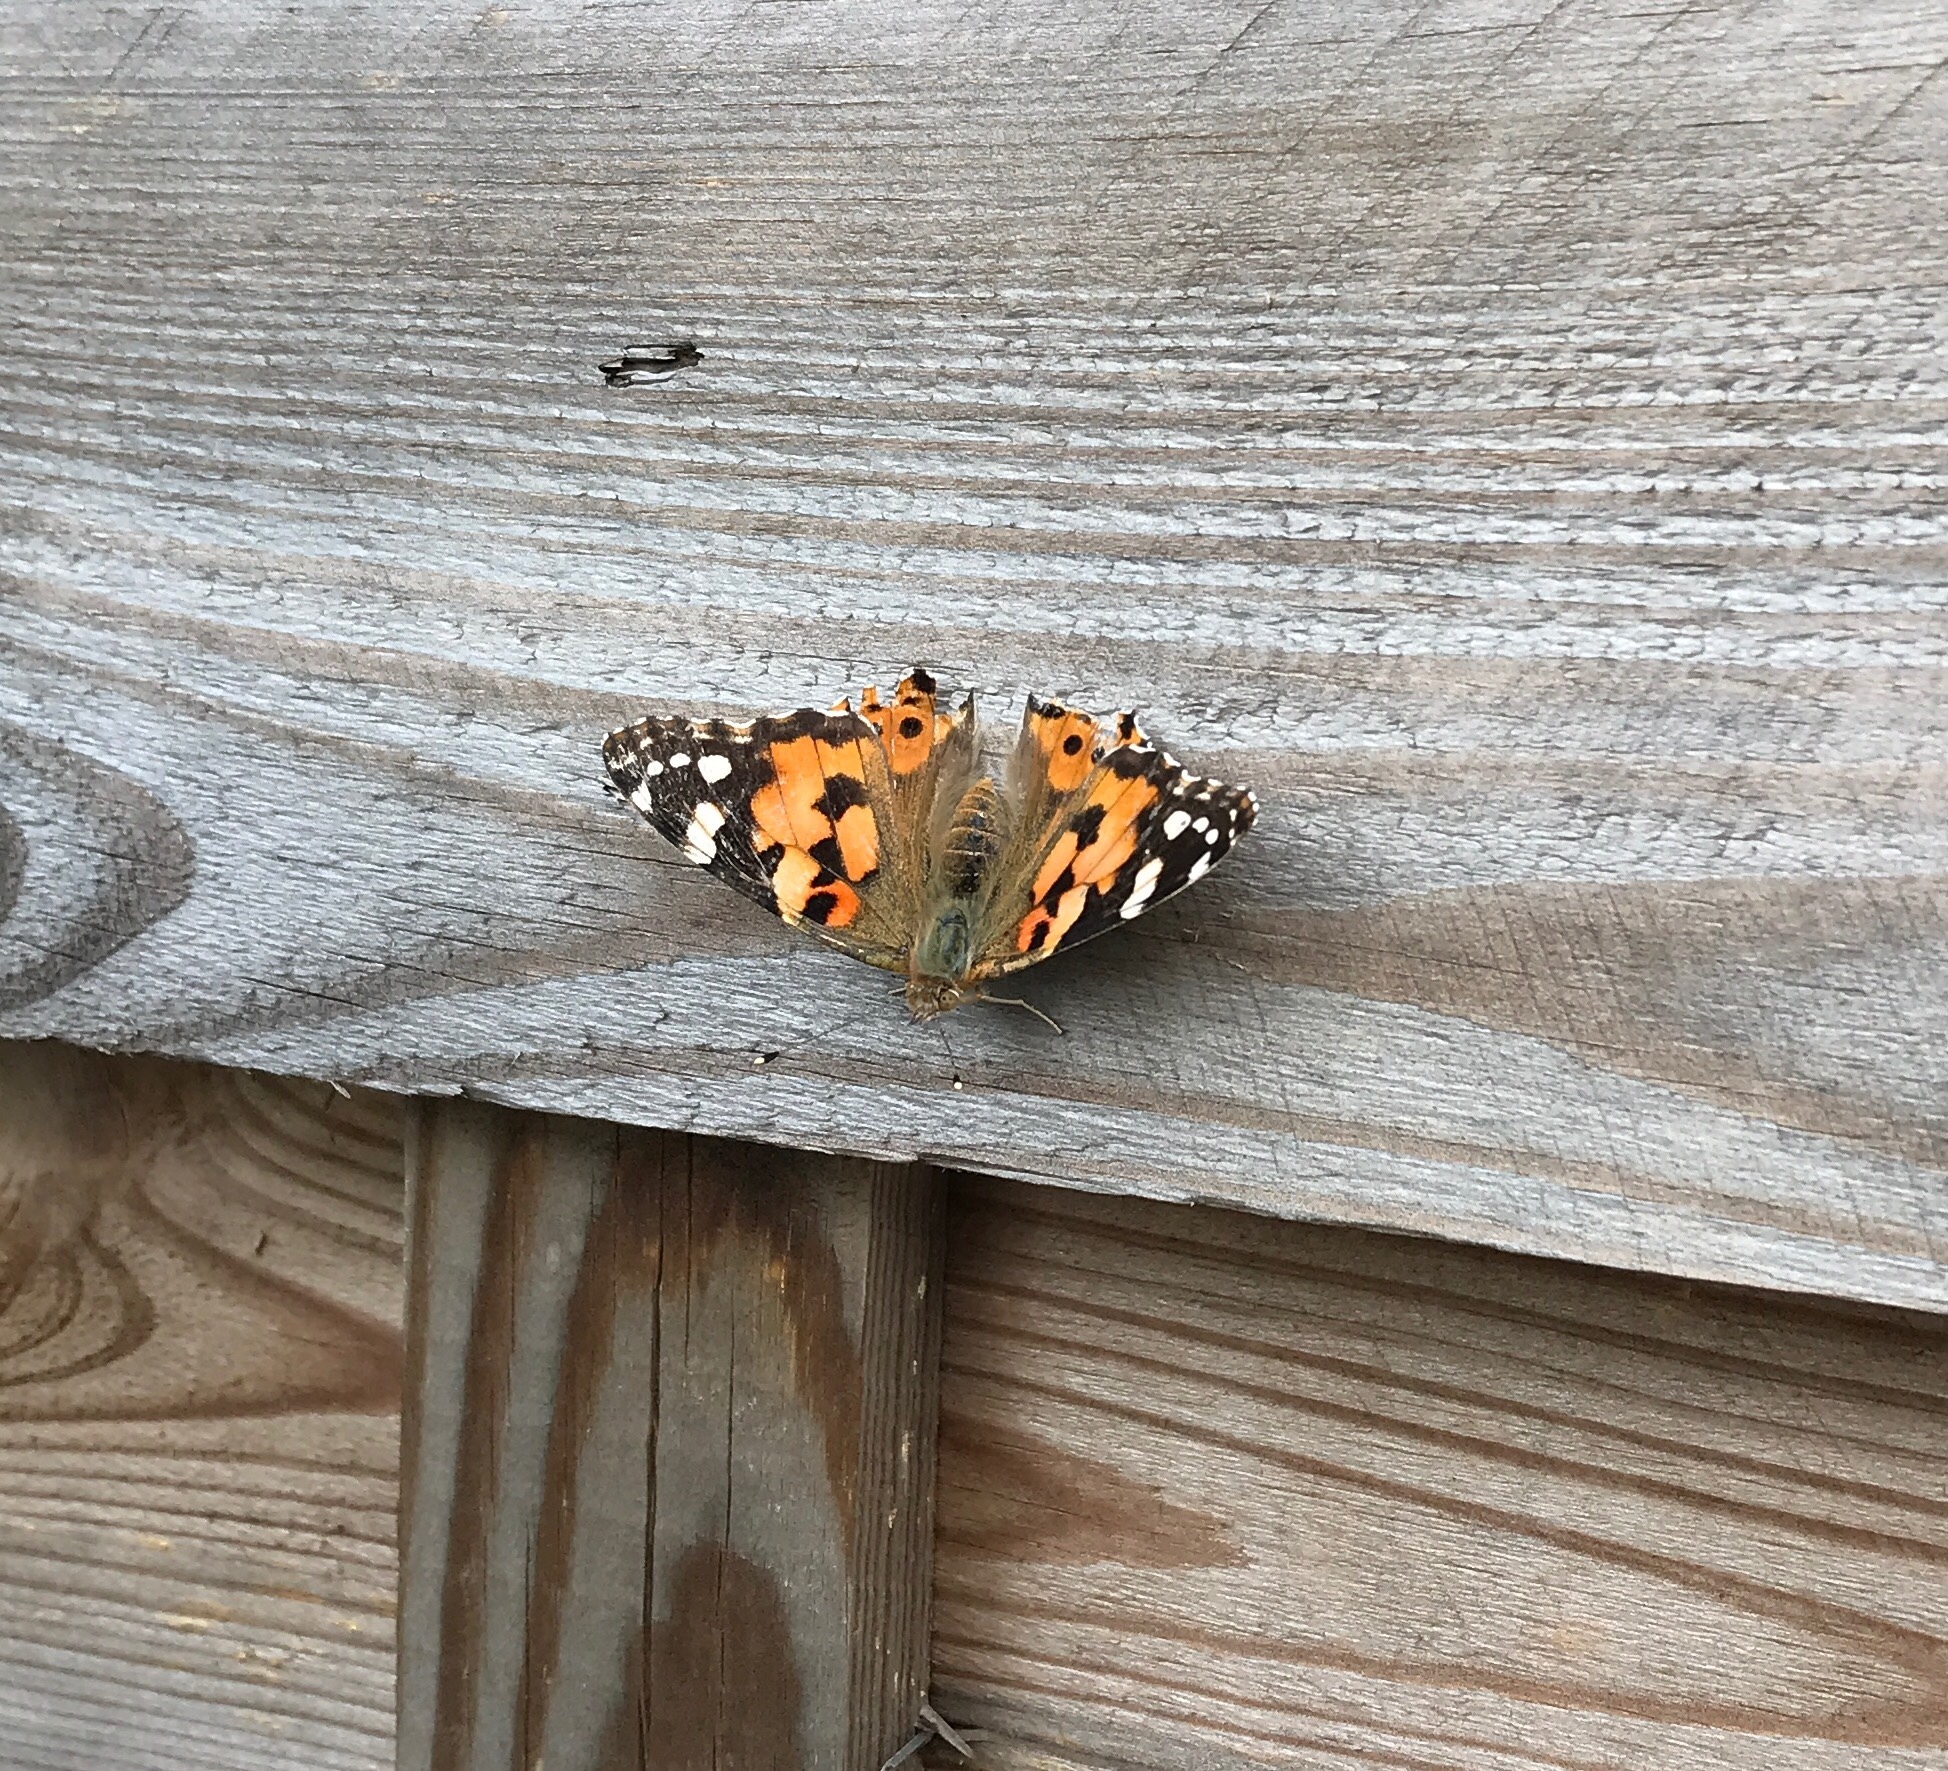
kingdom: Animalia
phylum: Arthropoda
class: Insecta
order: Lepidoptera
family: Nymphalidae
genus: Vanessa
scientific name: Vanessa cardui
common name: Painted lady
